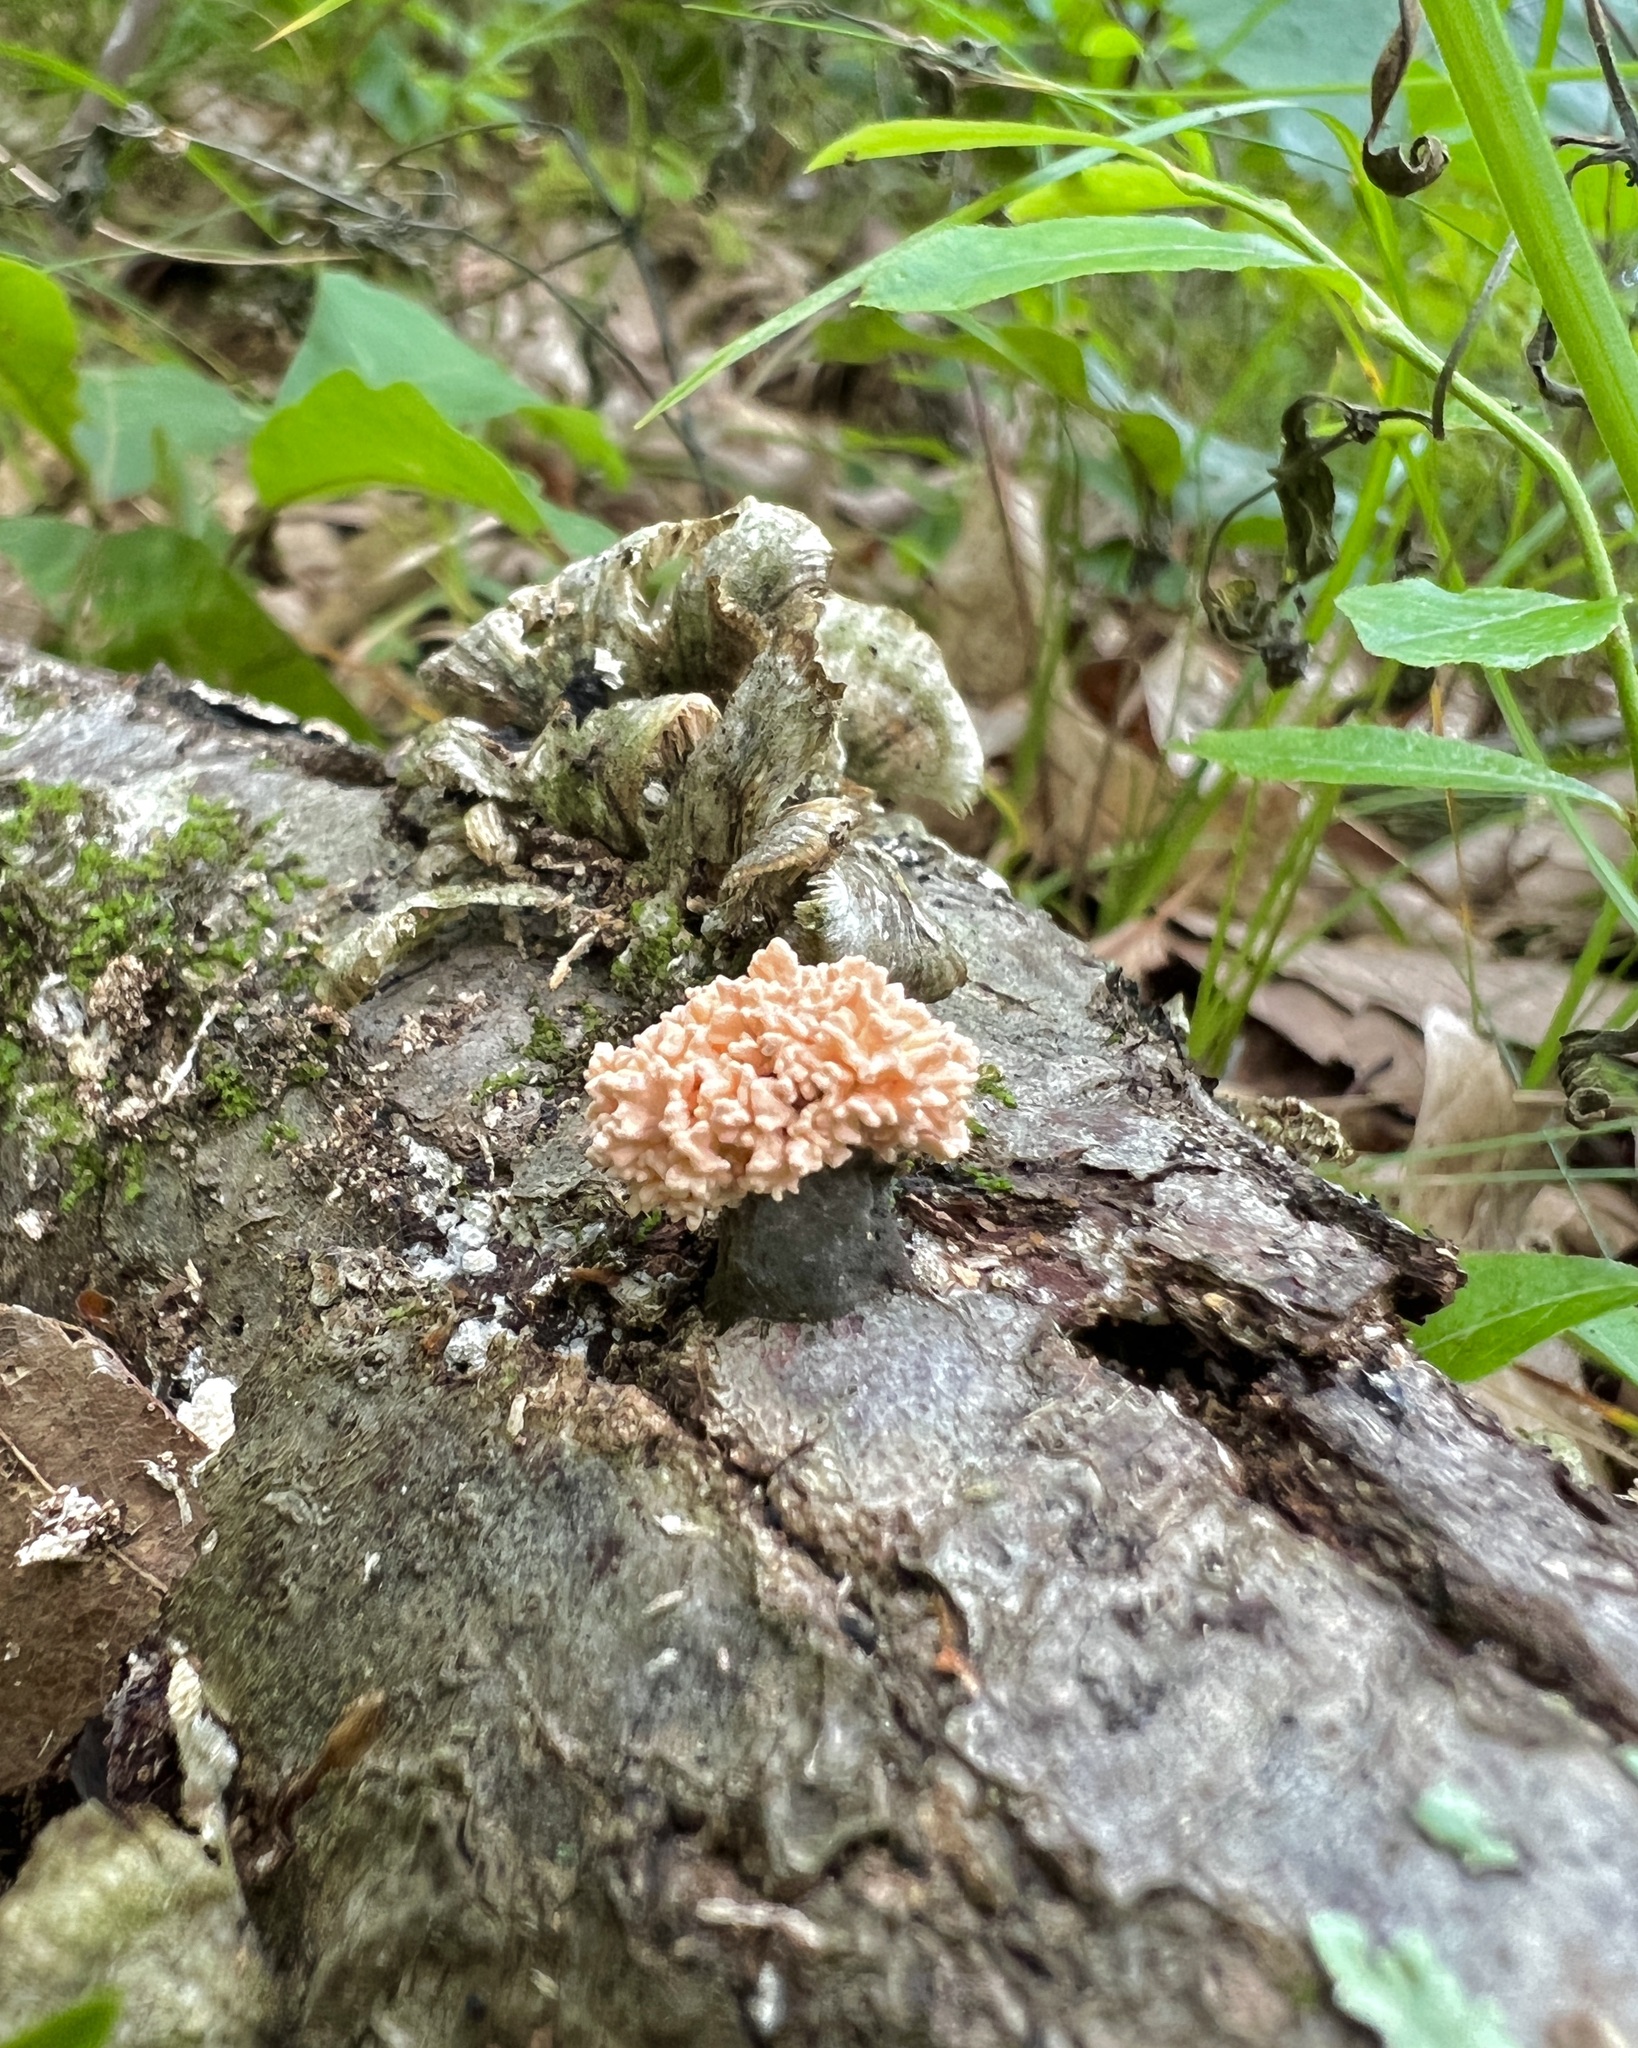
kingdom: Fungi
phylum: Ascomycota
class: Sordariomycetes
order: Xylariales
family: Xylariaceae
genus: Xylaria
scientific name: Xylaria cubensis
